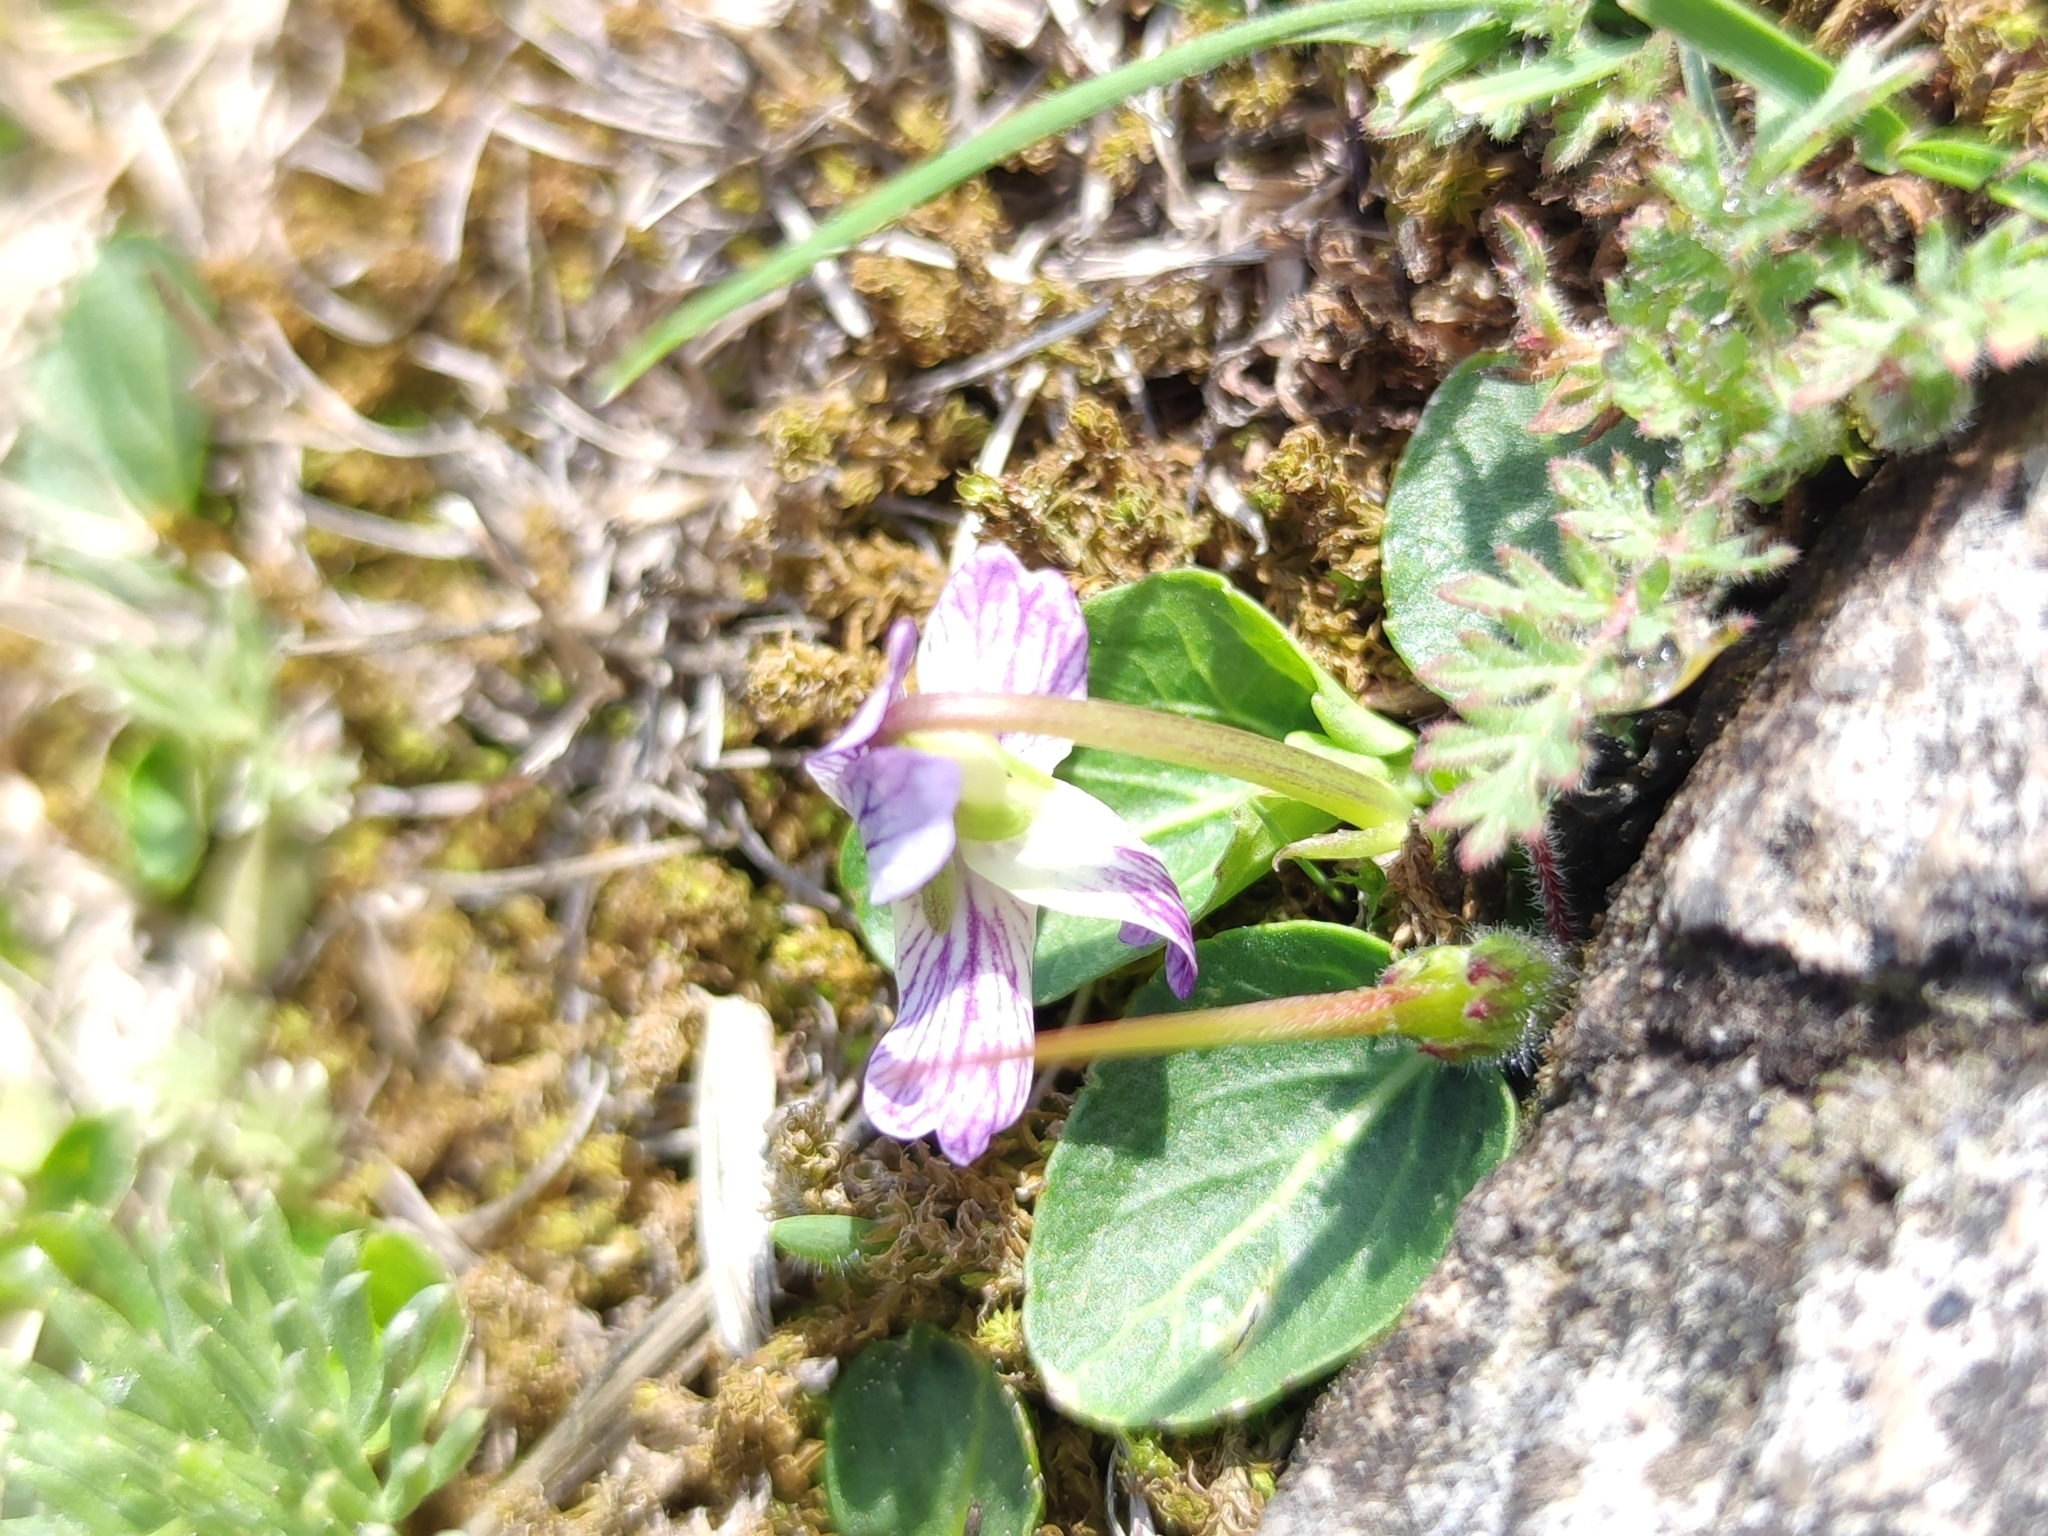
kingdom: Plantae
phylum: Tracheophyta
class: Magnoliopsida
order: Malpighiales
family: Violaceae
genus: Viola
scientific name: Viola humilis
